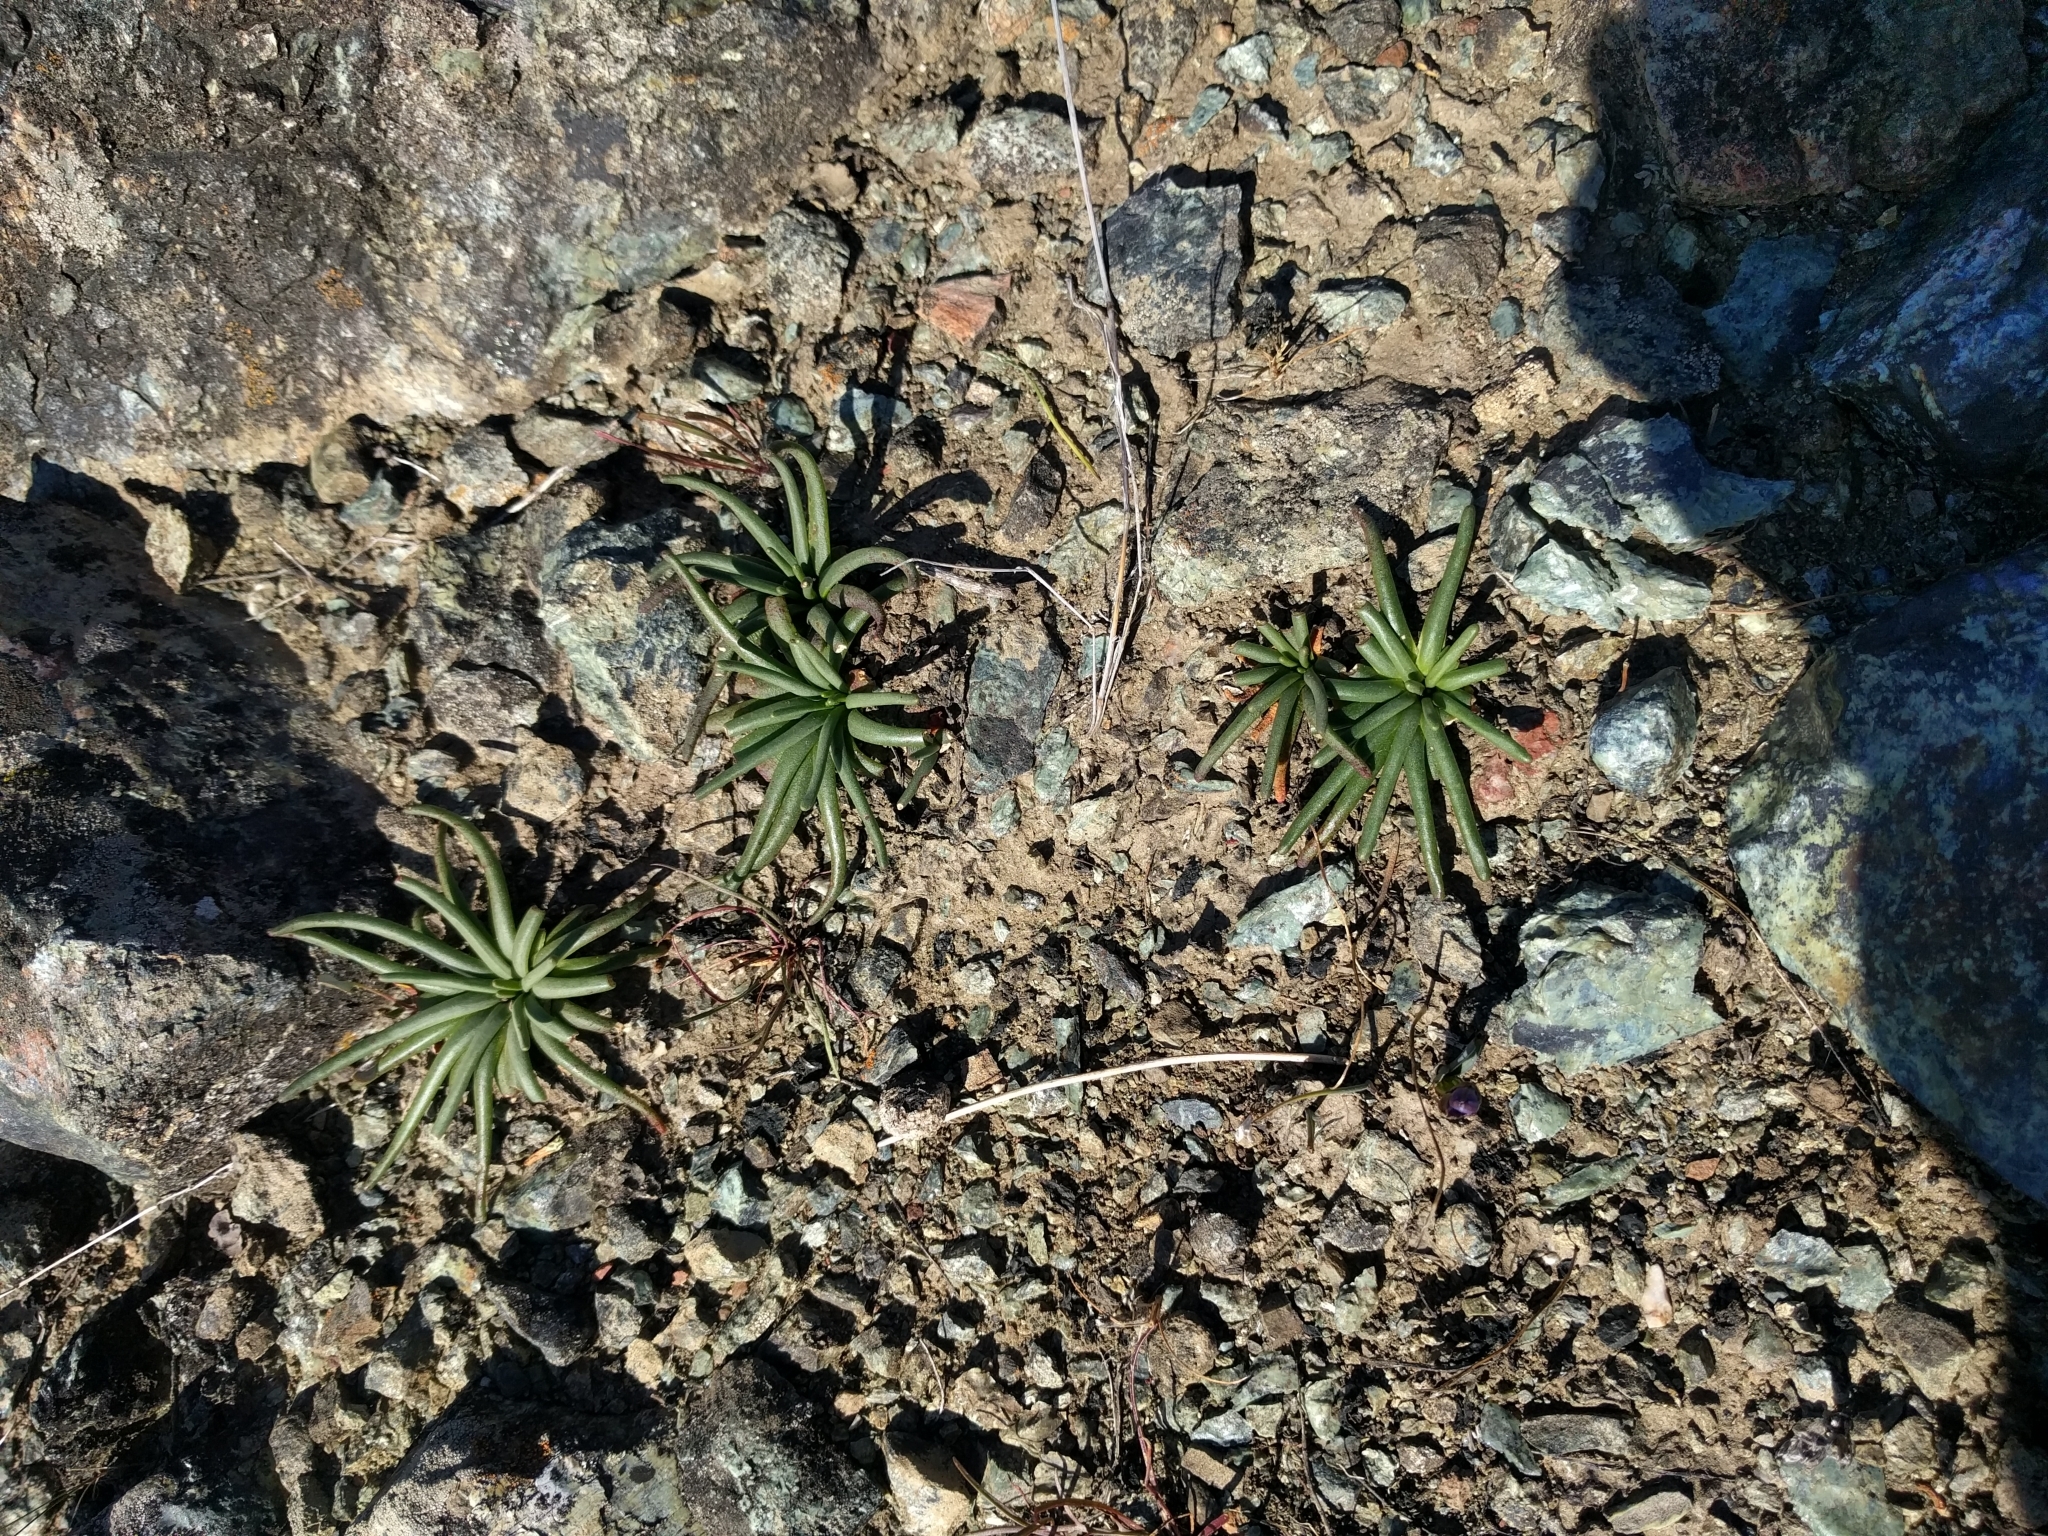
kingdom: Plantae
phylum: Tracheophyta
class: Magnoliopsida
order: Caryophyllales
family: Montiaceae
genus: Lewisia
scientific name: Lewisia rediviva
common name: Bitter-root
